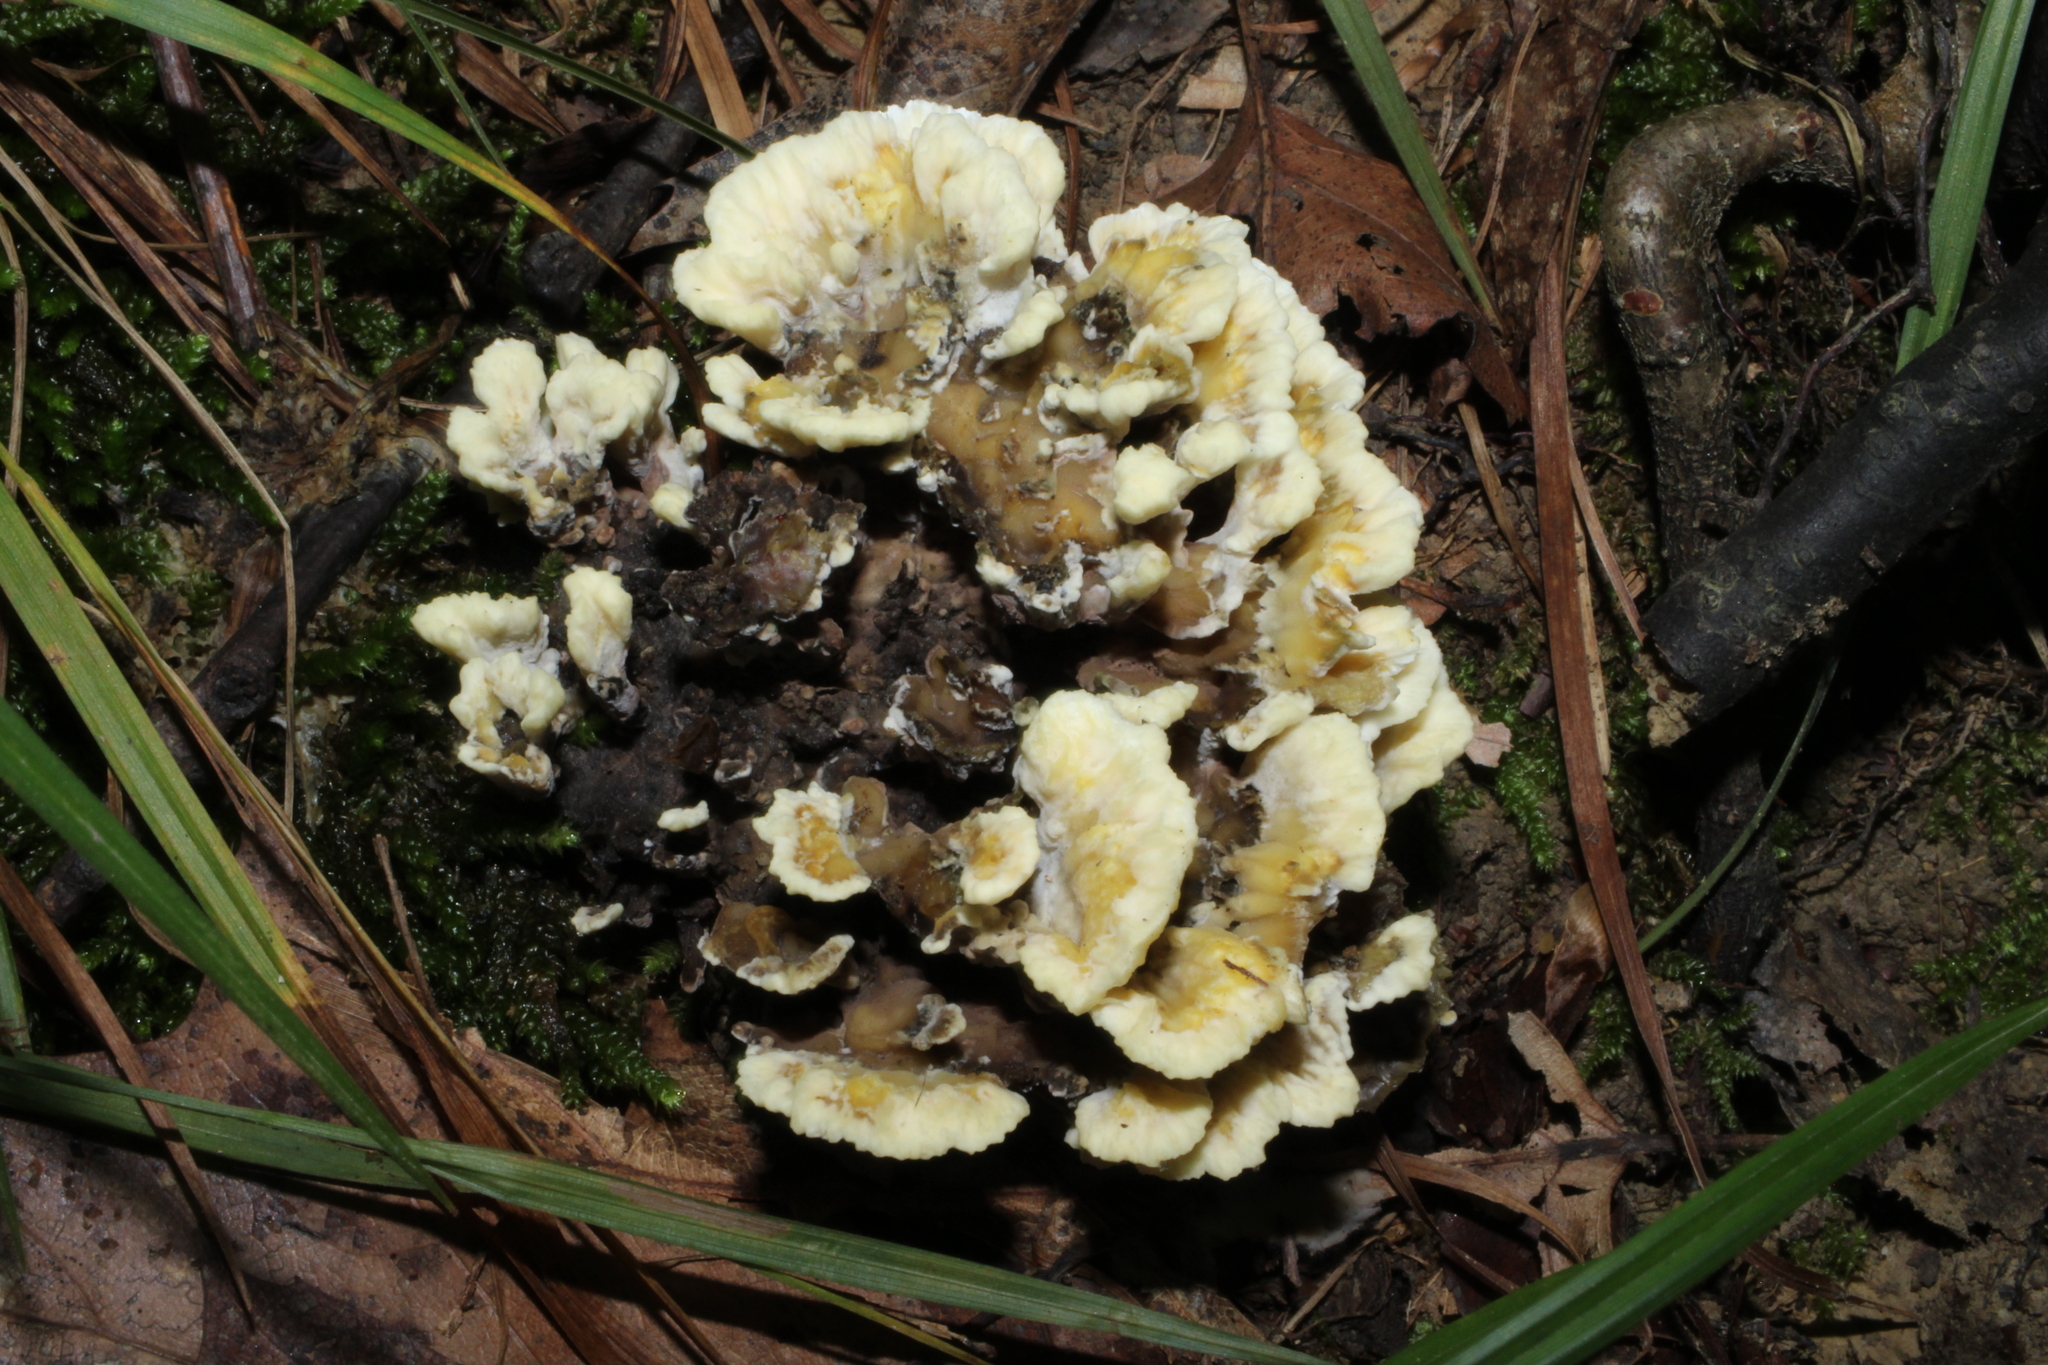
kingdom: Fungi
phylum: Basidiomycota
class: Agaricomycetes
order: Thelephorales
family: Thelephoraceae
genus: Thelephora
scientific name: Thelephora vialis
